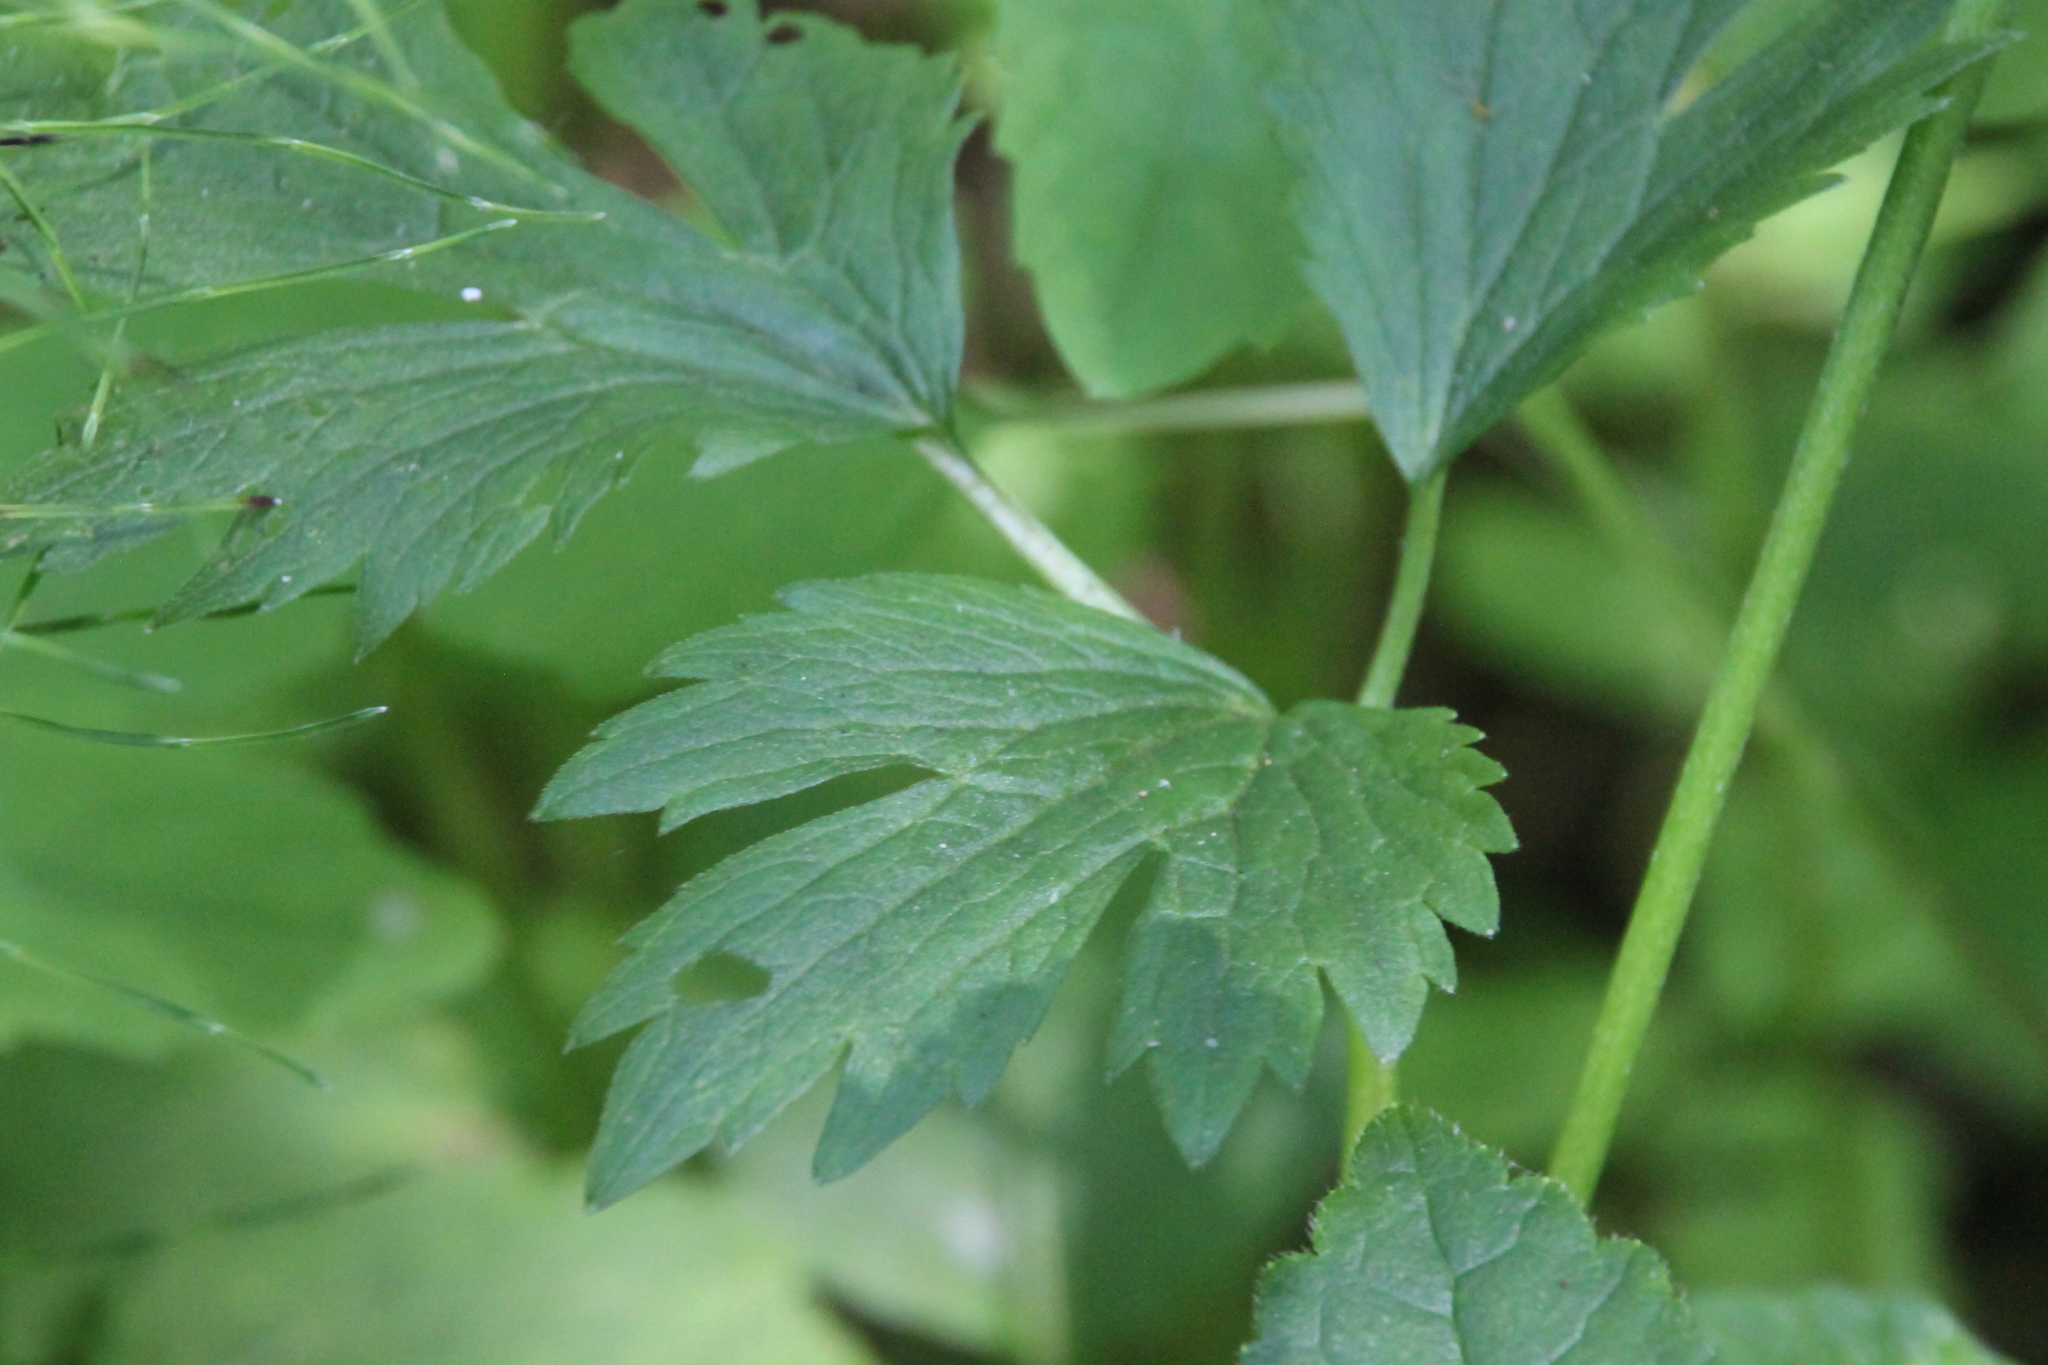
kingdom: Plantae
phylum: Tracheophyta
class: Magnoliopsida
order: Ranunculales
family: Ranunculaceae
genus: Ranunculus
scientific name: Ranunculus repens
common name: Creeping buttercup
